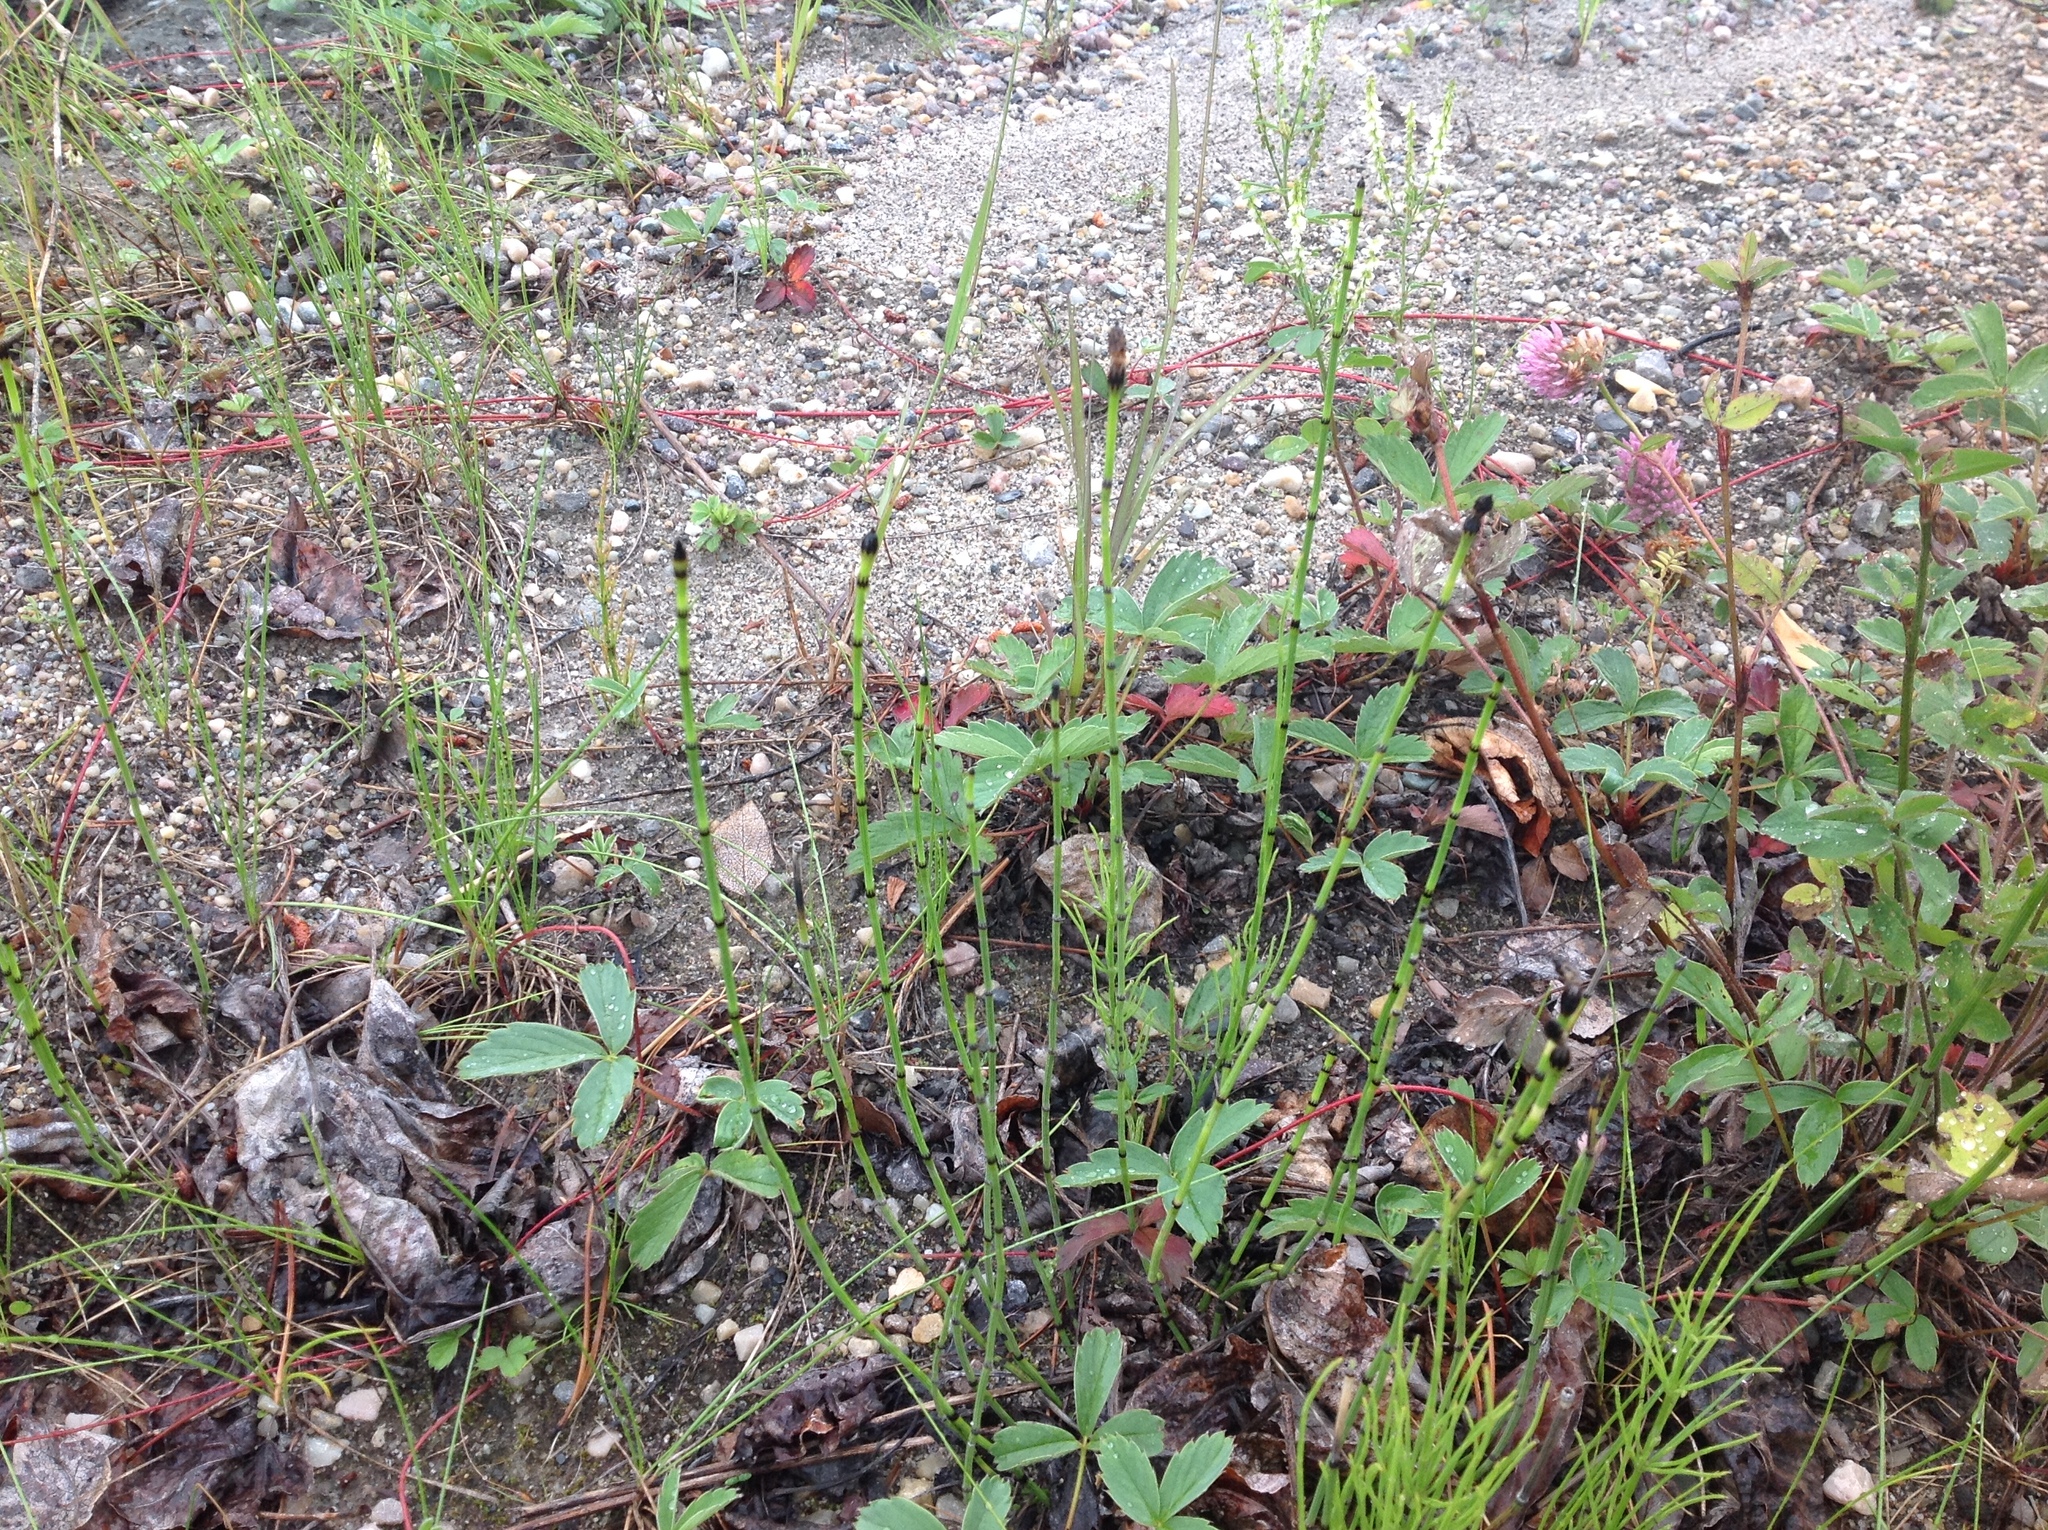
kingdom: Plantae
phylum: Tracheophyta
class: Polypodiopsida
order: Equisetales
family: Equisetaceae
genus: Equisetum
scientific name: Equisetum variegatum
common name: Variegated horsetail
